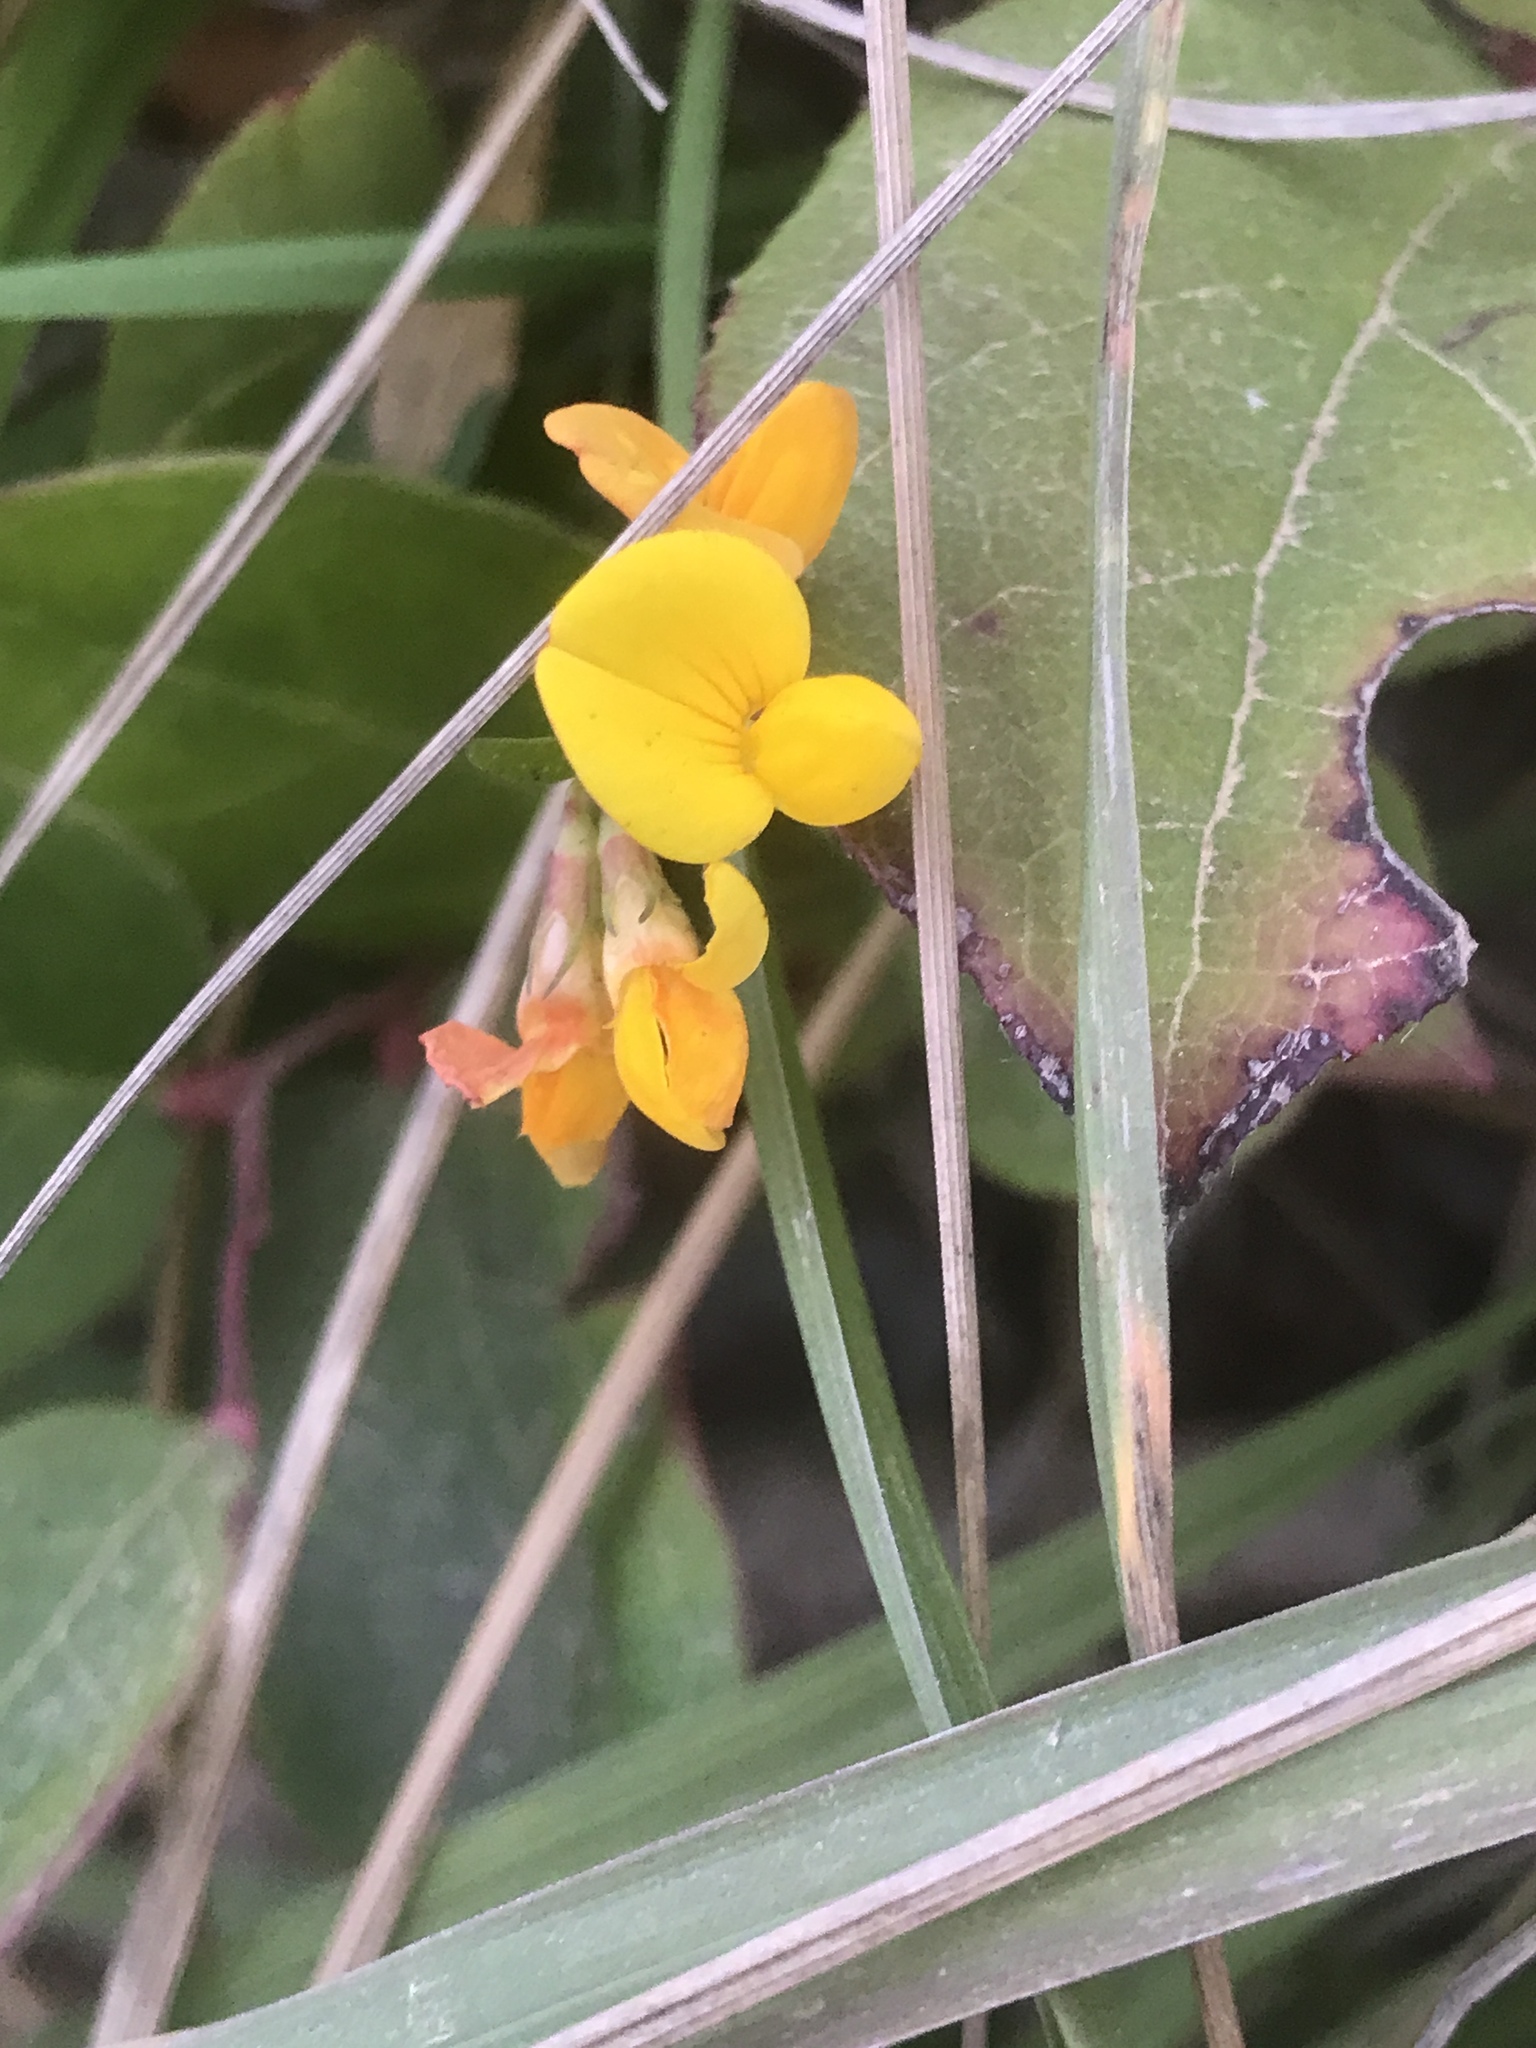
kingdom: Plantae
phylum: Tracheophyta
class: Magnoliopsida
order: Fabales
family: Fabaceae
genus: Lotus
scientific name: Lotus corniculatus
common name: Common bird's-foot-trefoil
